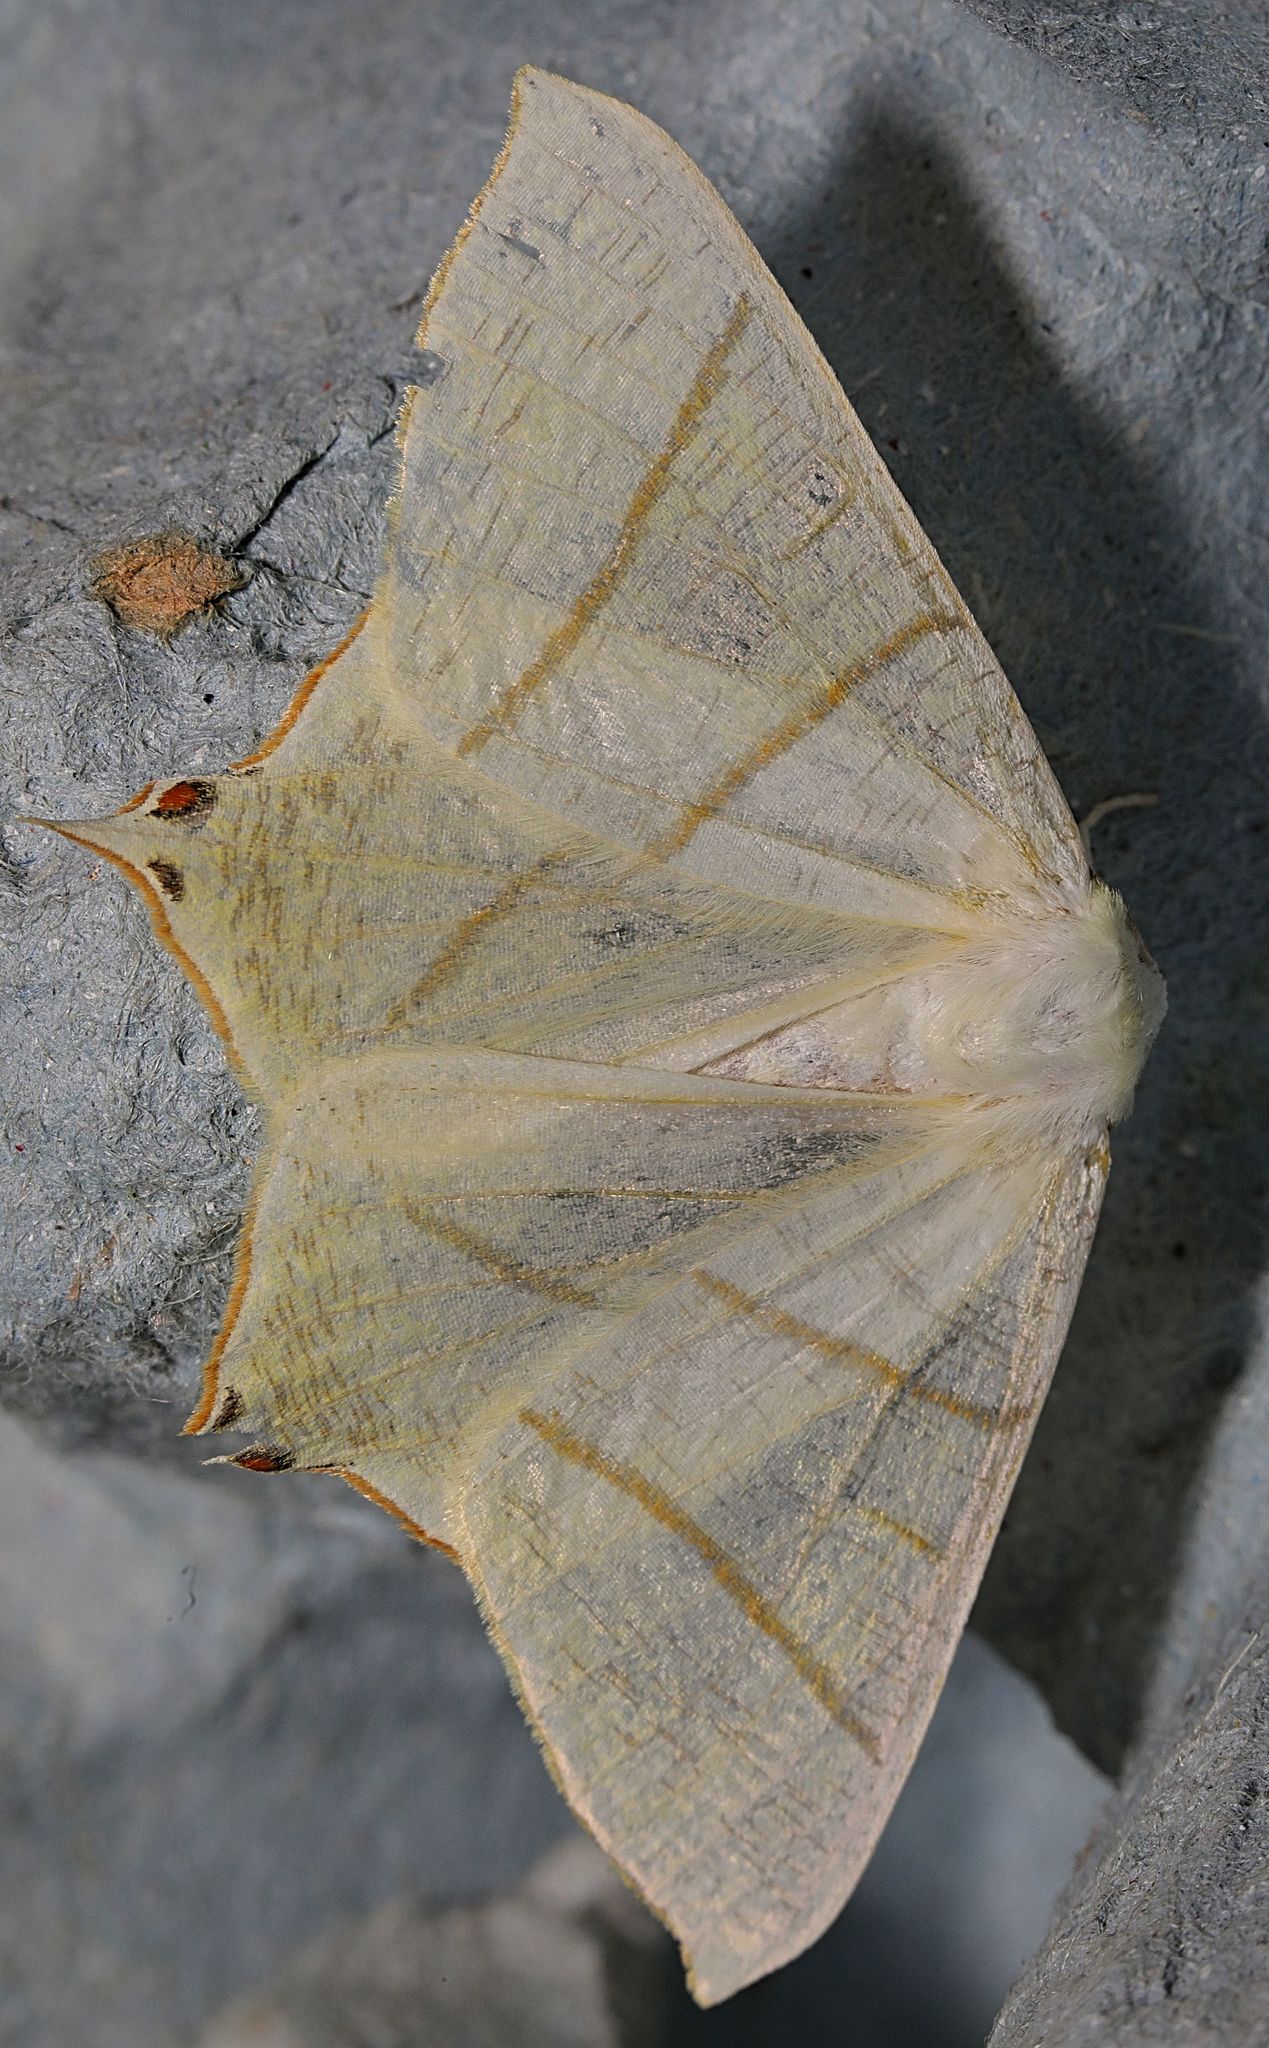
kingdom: Animalia
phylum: Arthropoda
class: Insecta
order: Lepidoptera
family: Geometridae
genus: Ourapteryx
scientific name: Ourapteryx sambucaria
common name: Swallow-tailed moth
